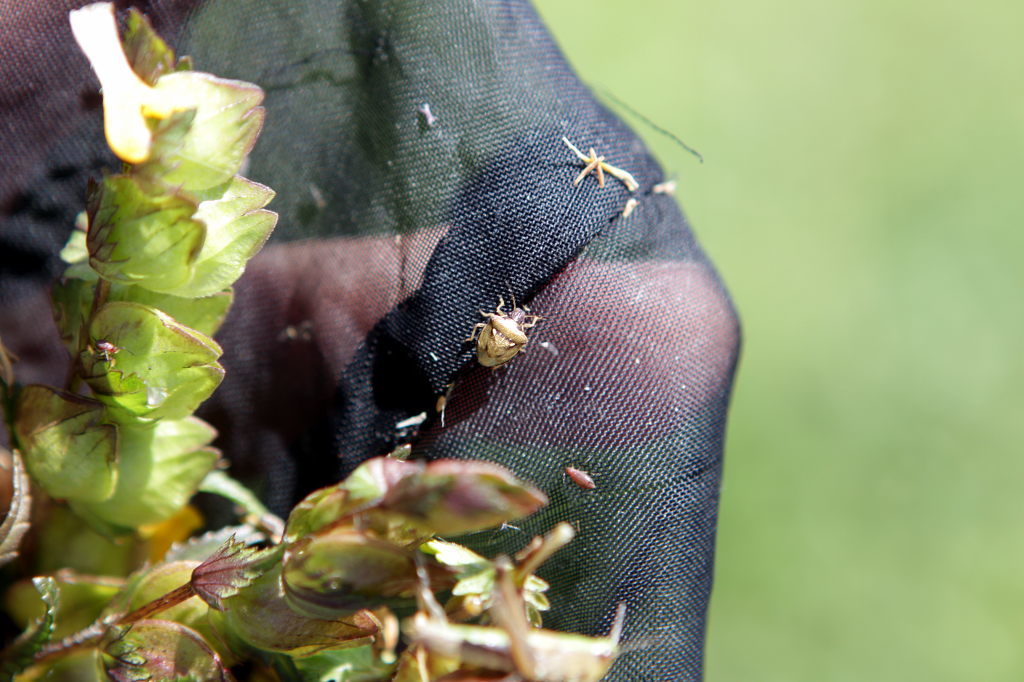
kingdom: Animalia
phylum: Arthropoda
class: Insecta
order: Hemiptera
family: Pentatomidae
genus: Eysarcoris
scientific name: Eysarcoris aeneus
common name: New forest shieldbug
